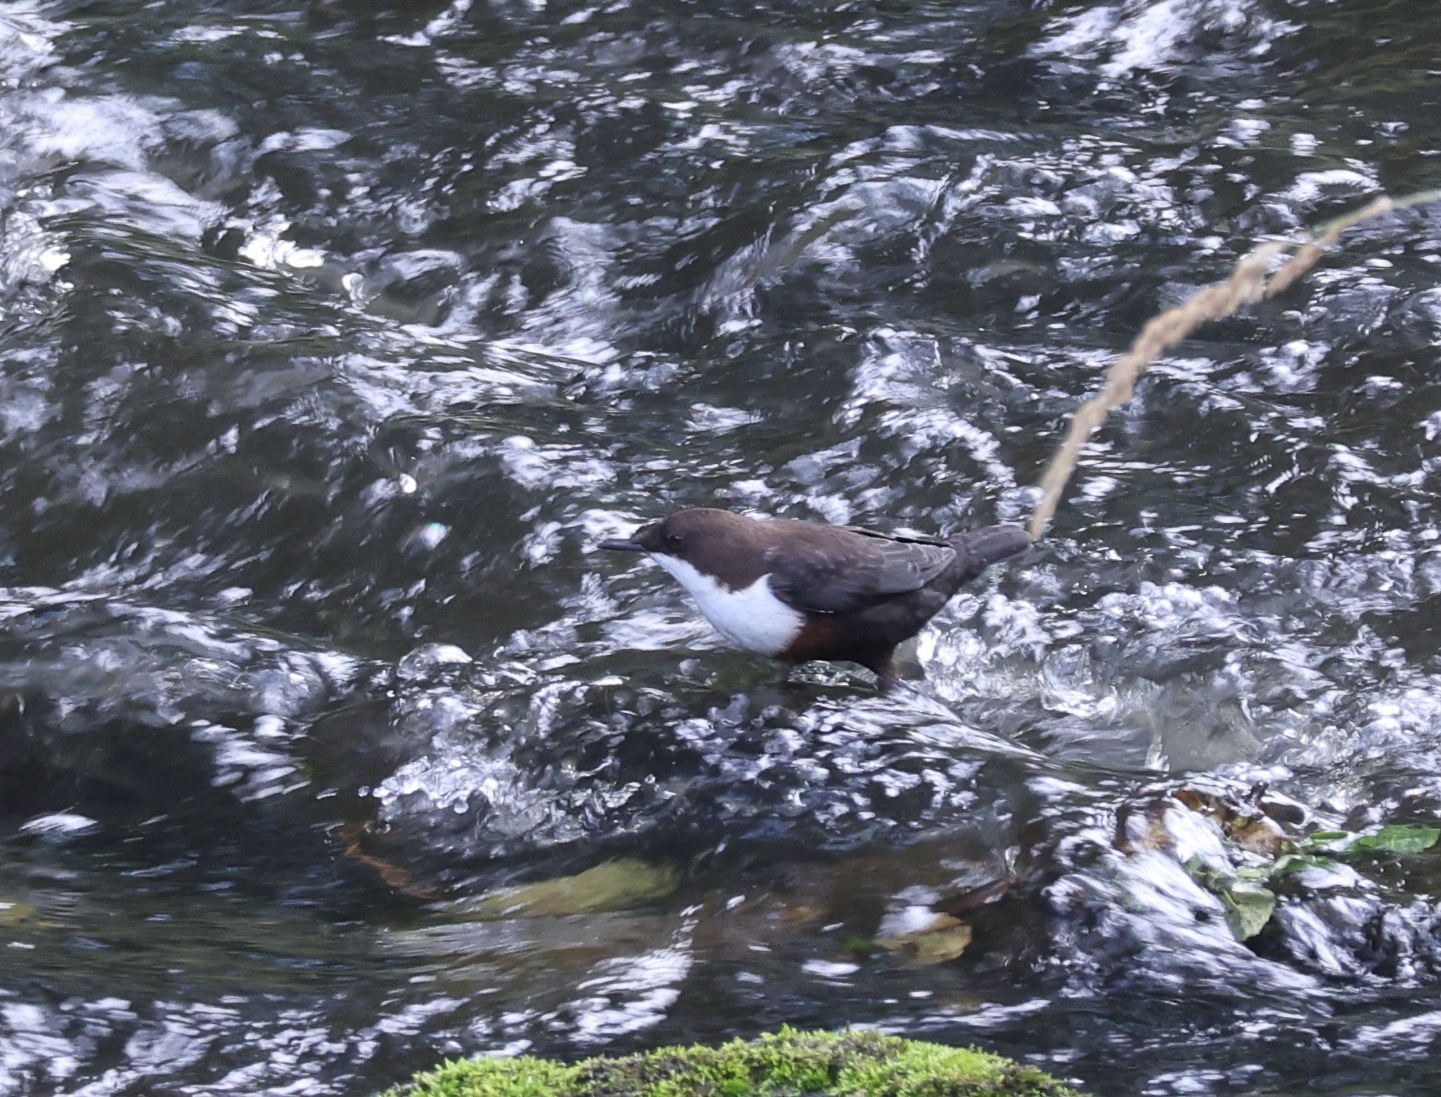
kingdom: Animalia
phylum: Chordata
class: Aves
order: Passeriformes
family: Cinclidae
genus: Cinclus
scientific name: Cinclus cinclus
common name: White-throated dipper
